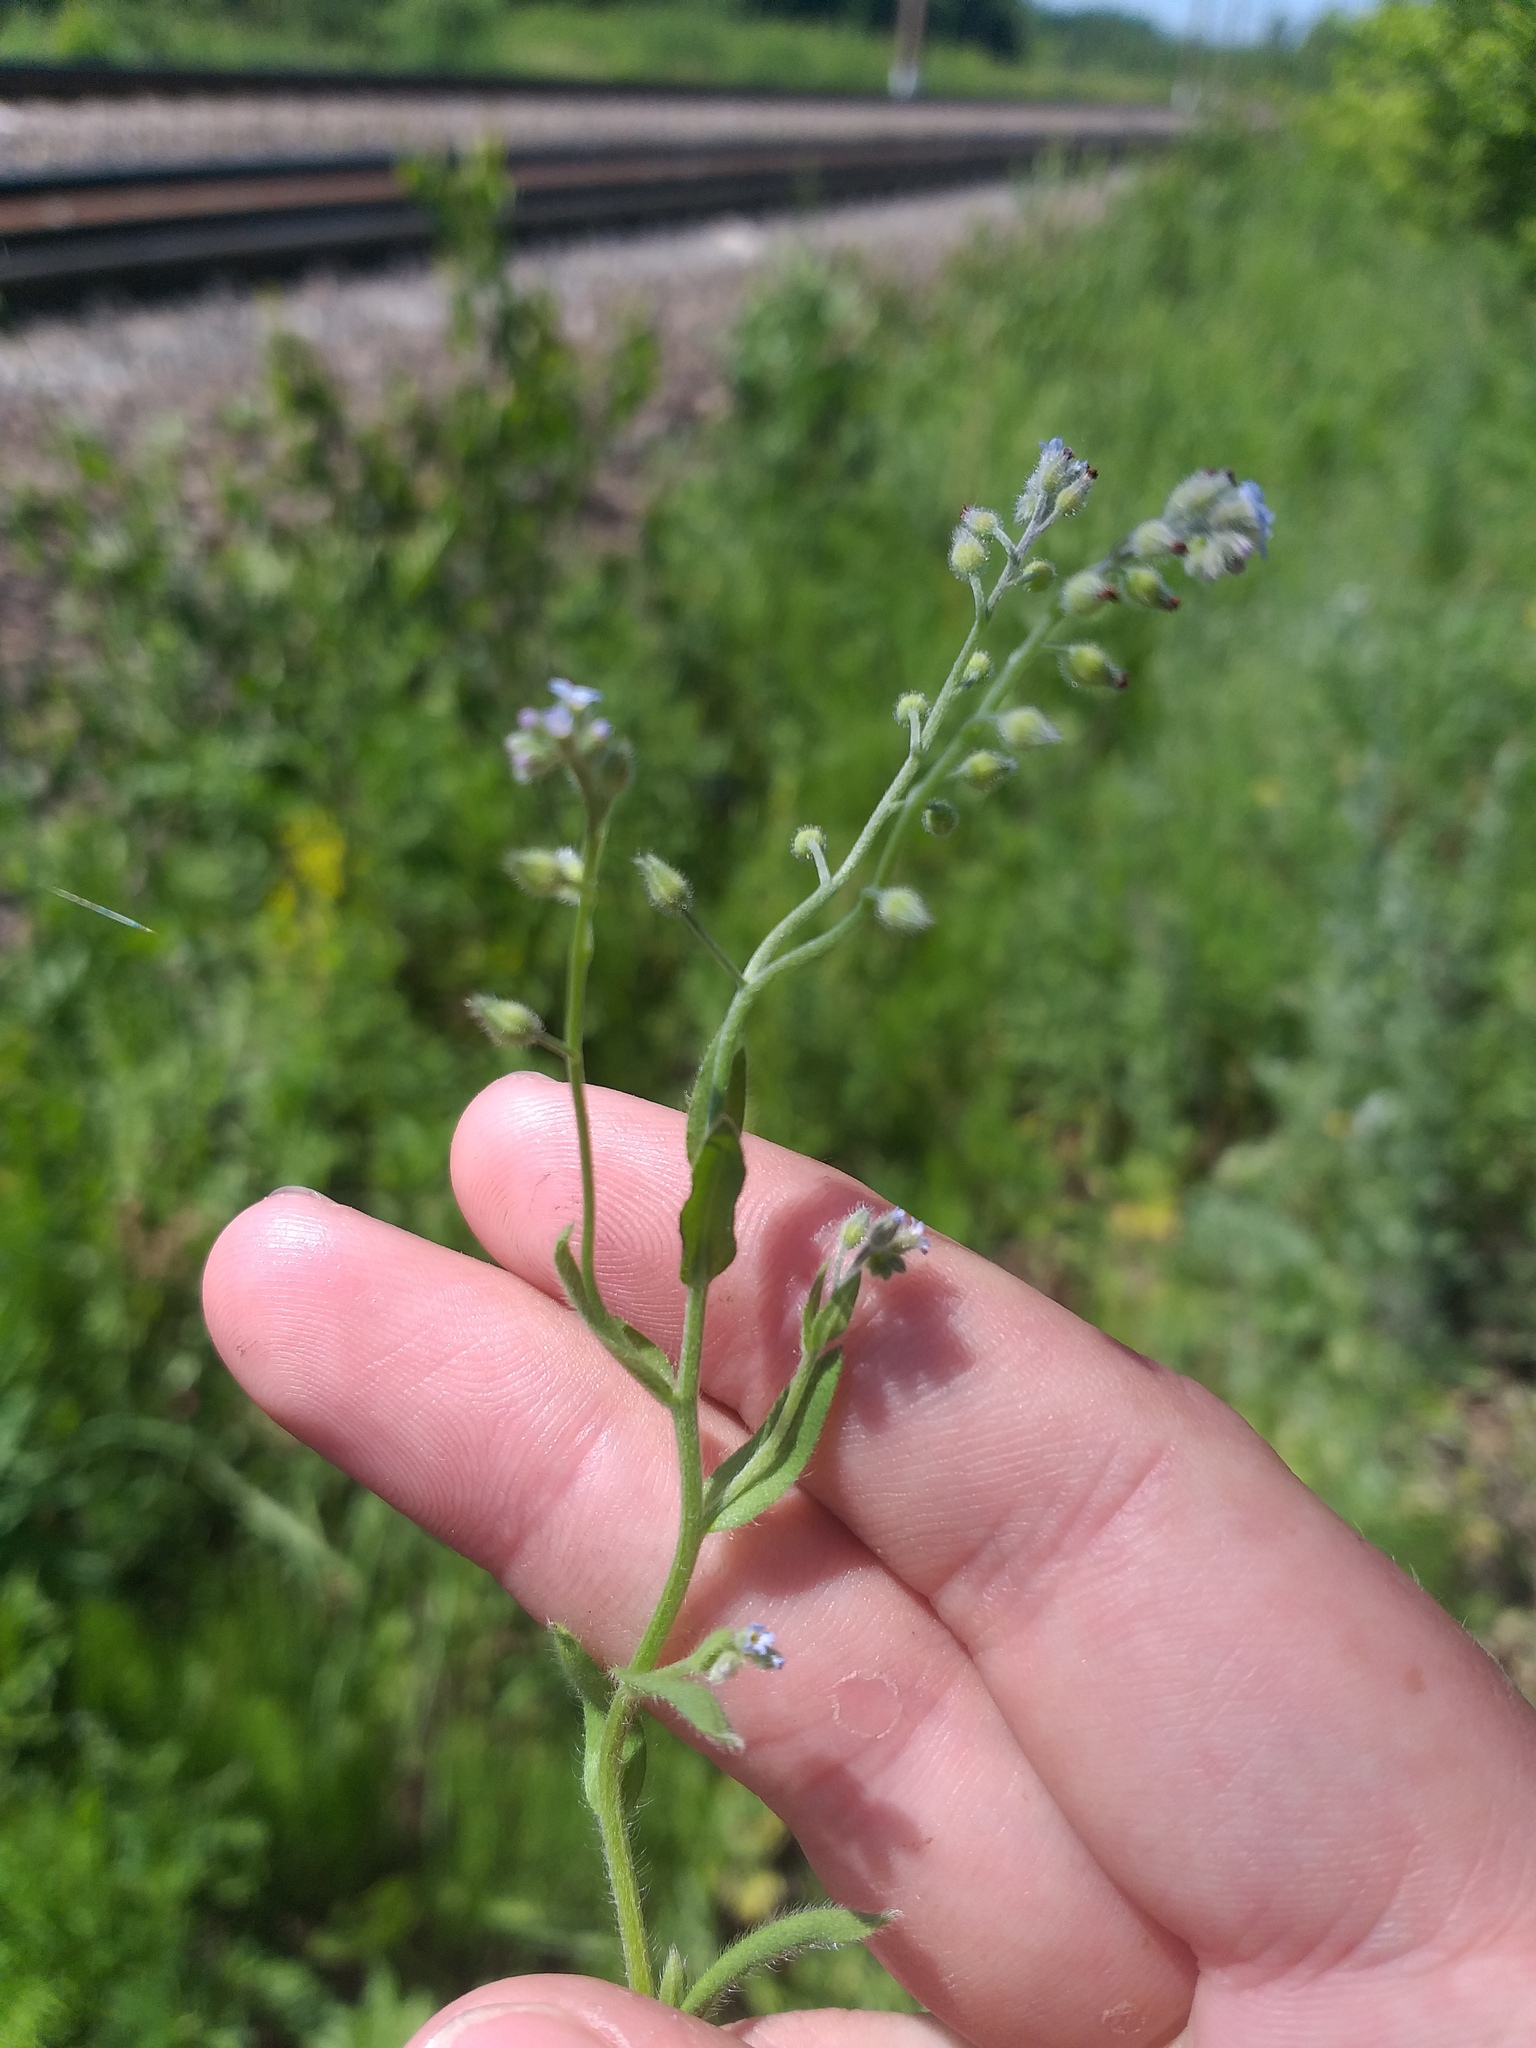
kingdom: Plantae
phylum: Tracheophyta
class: Magnoliopsida
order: Boraginales
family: Boraginaceae
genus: Myosotis
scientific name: Myosotis arvensis
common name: Field forget-me-not
